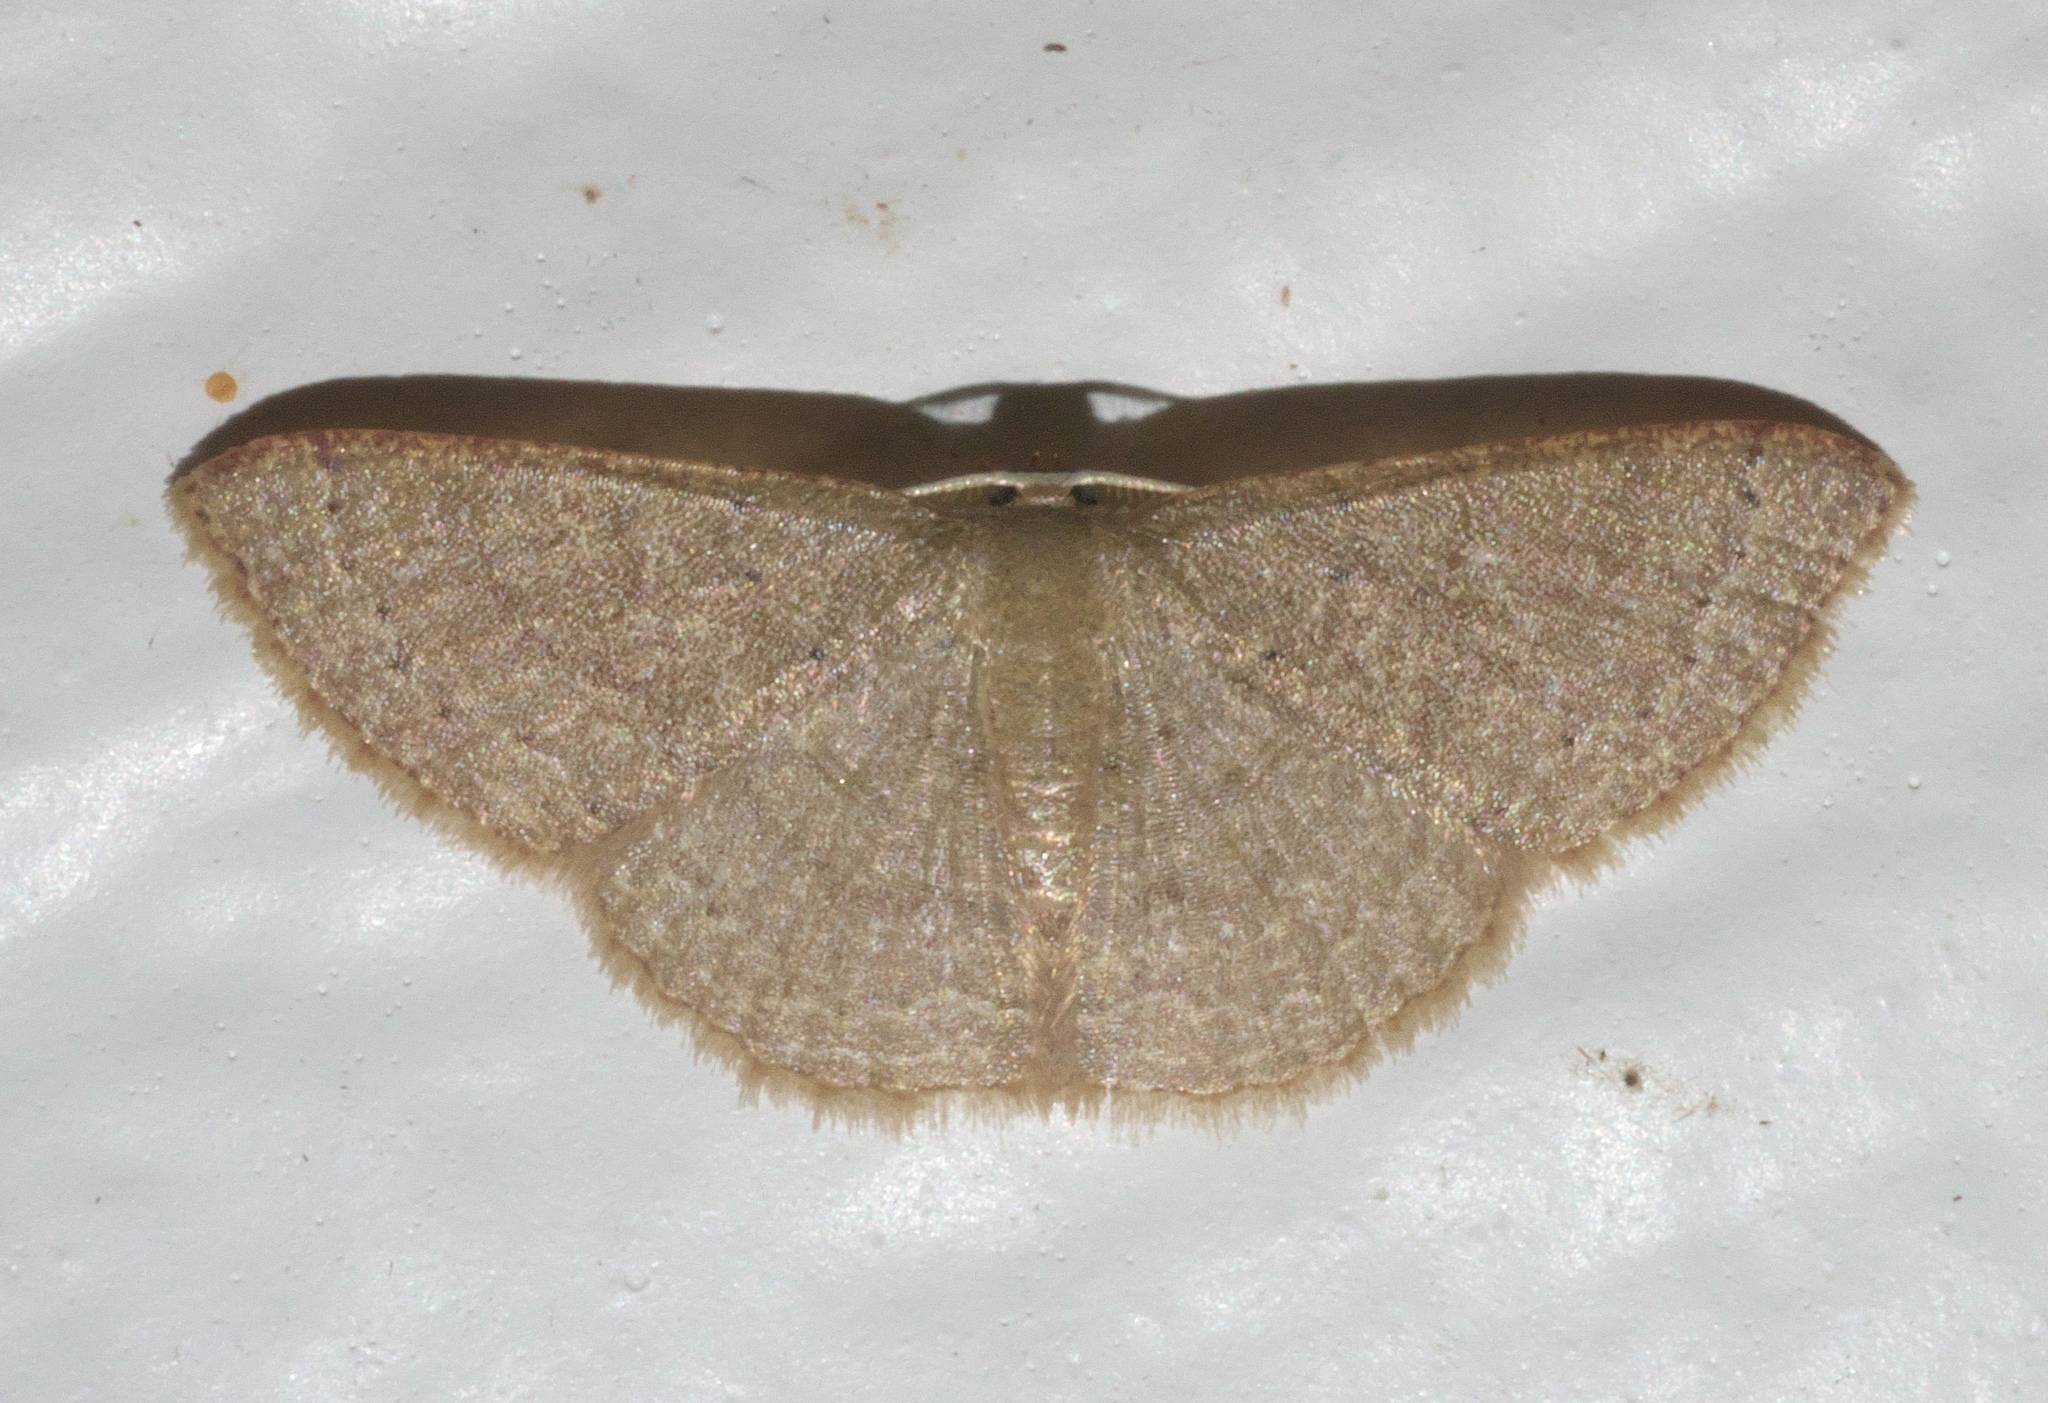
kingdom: Animalia
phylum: Arthropoda
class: Insecta
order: Lepidoptera
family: Geometridae
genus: Pleuroprucha
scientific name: Pleuroprucha insulsaria
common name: Common tan wave
